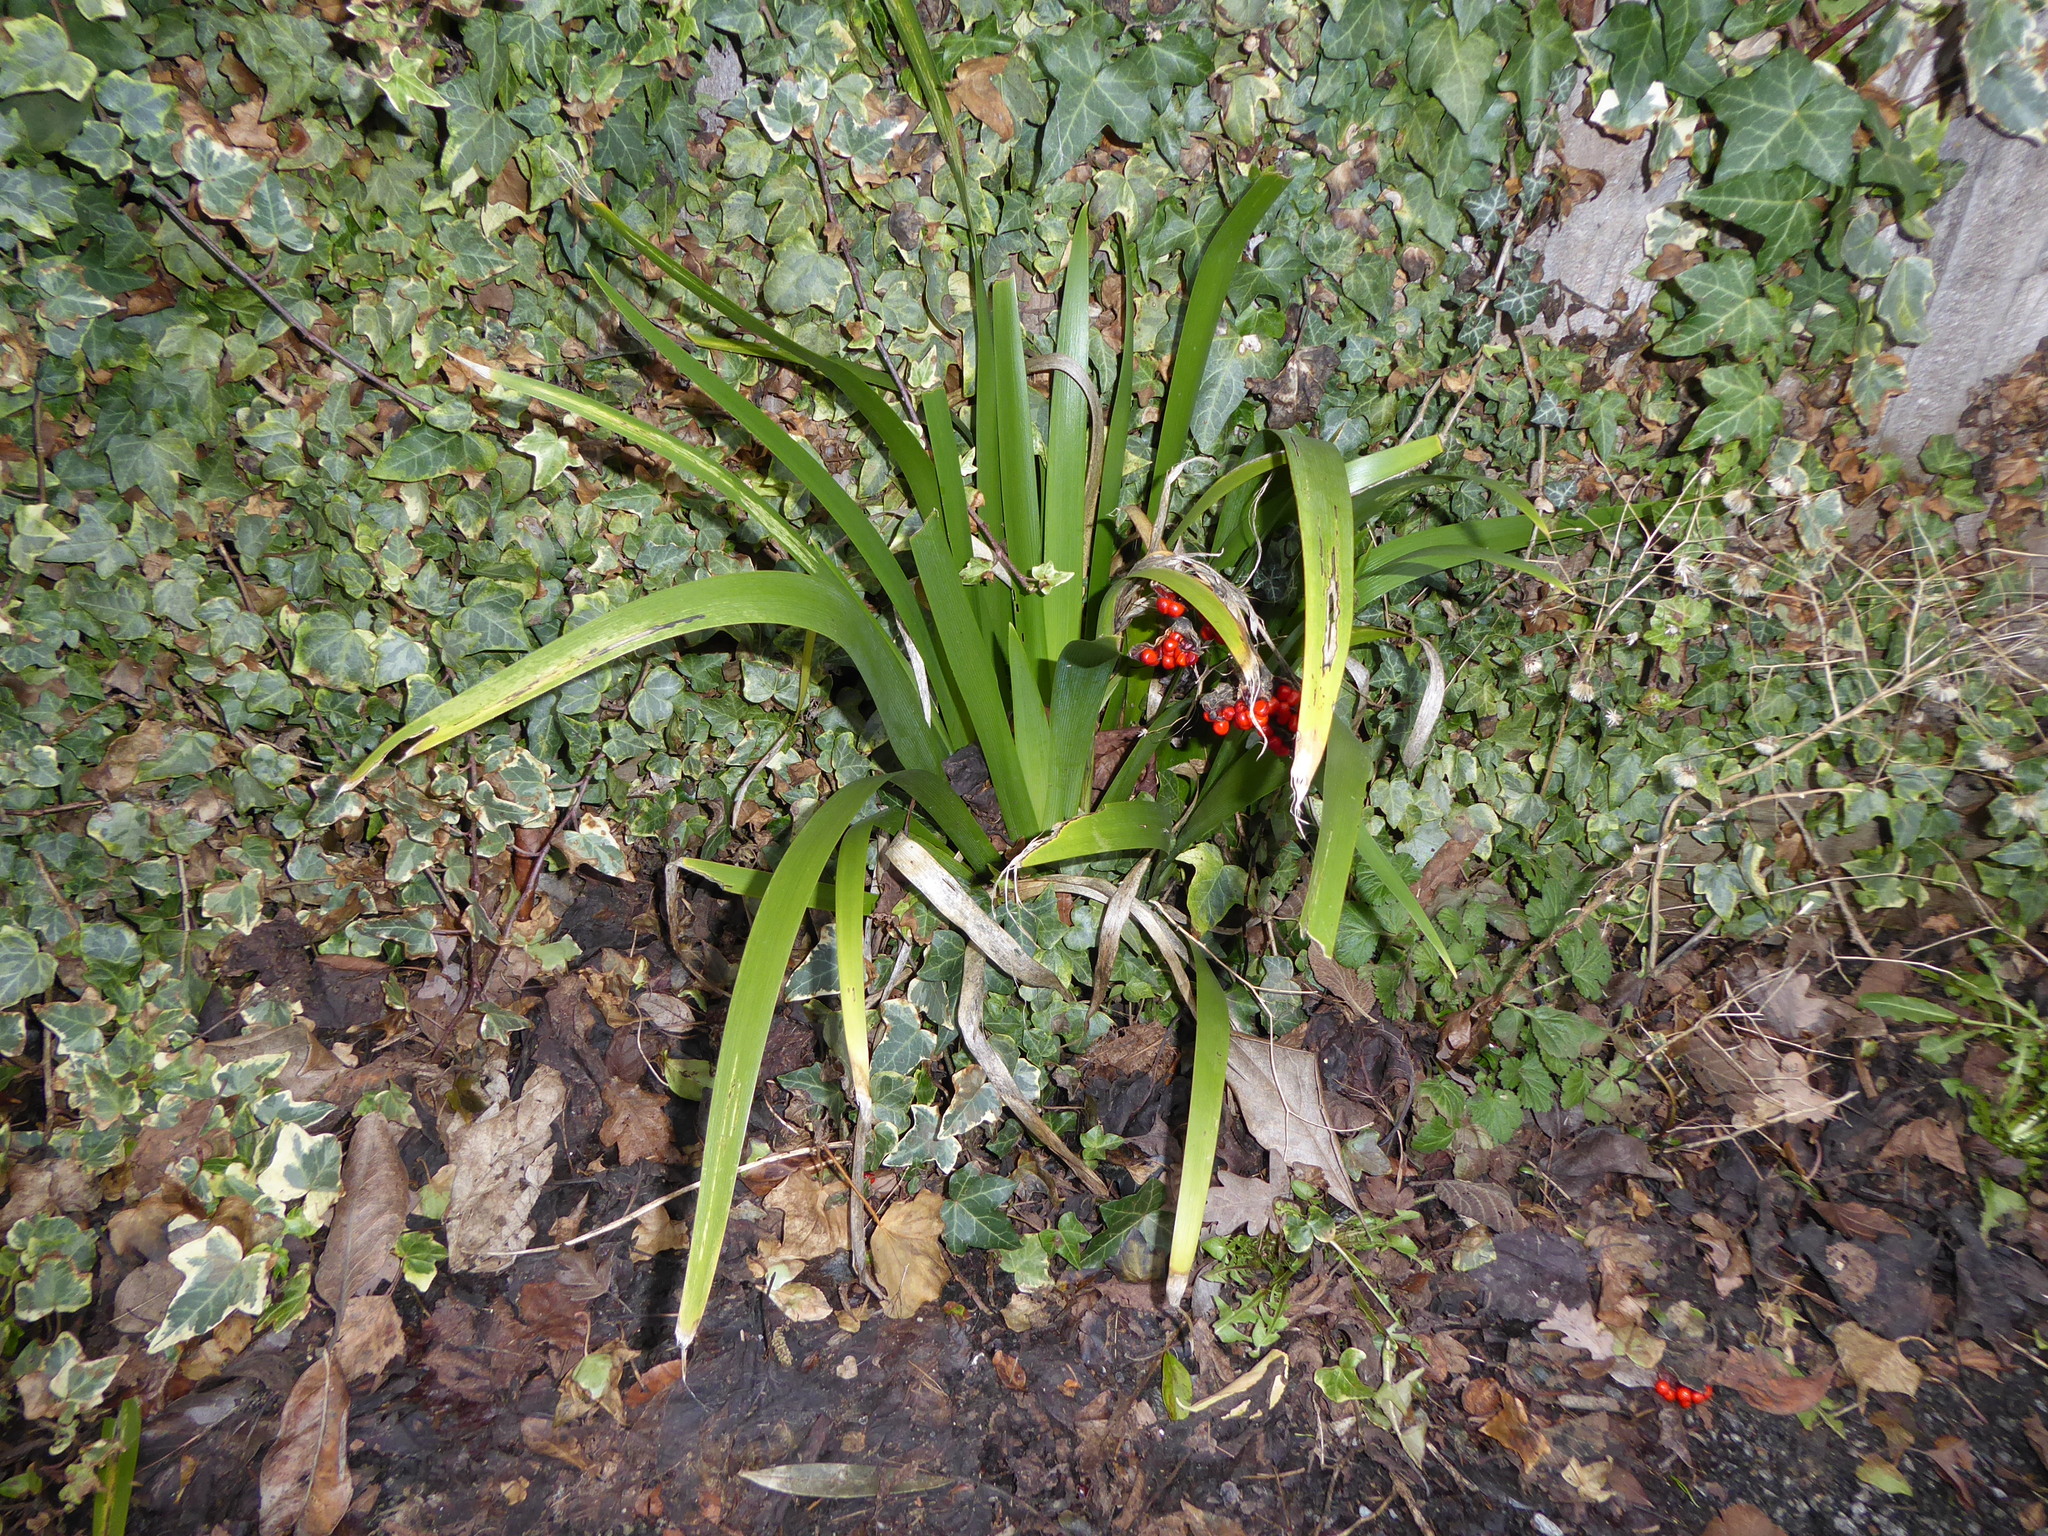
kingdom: Plantae
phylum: Tracheophyta
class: Liliopsida
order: Asparagales
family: Iridaceae
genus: Iris
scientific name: Iris foetidissima
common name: Stinking iris
